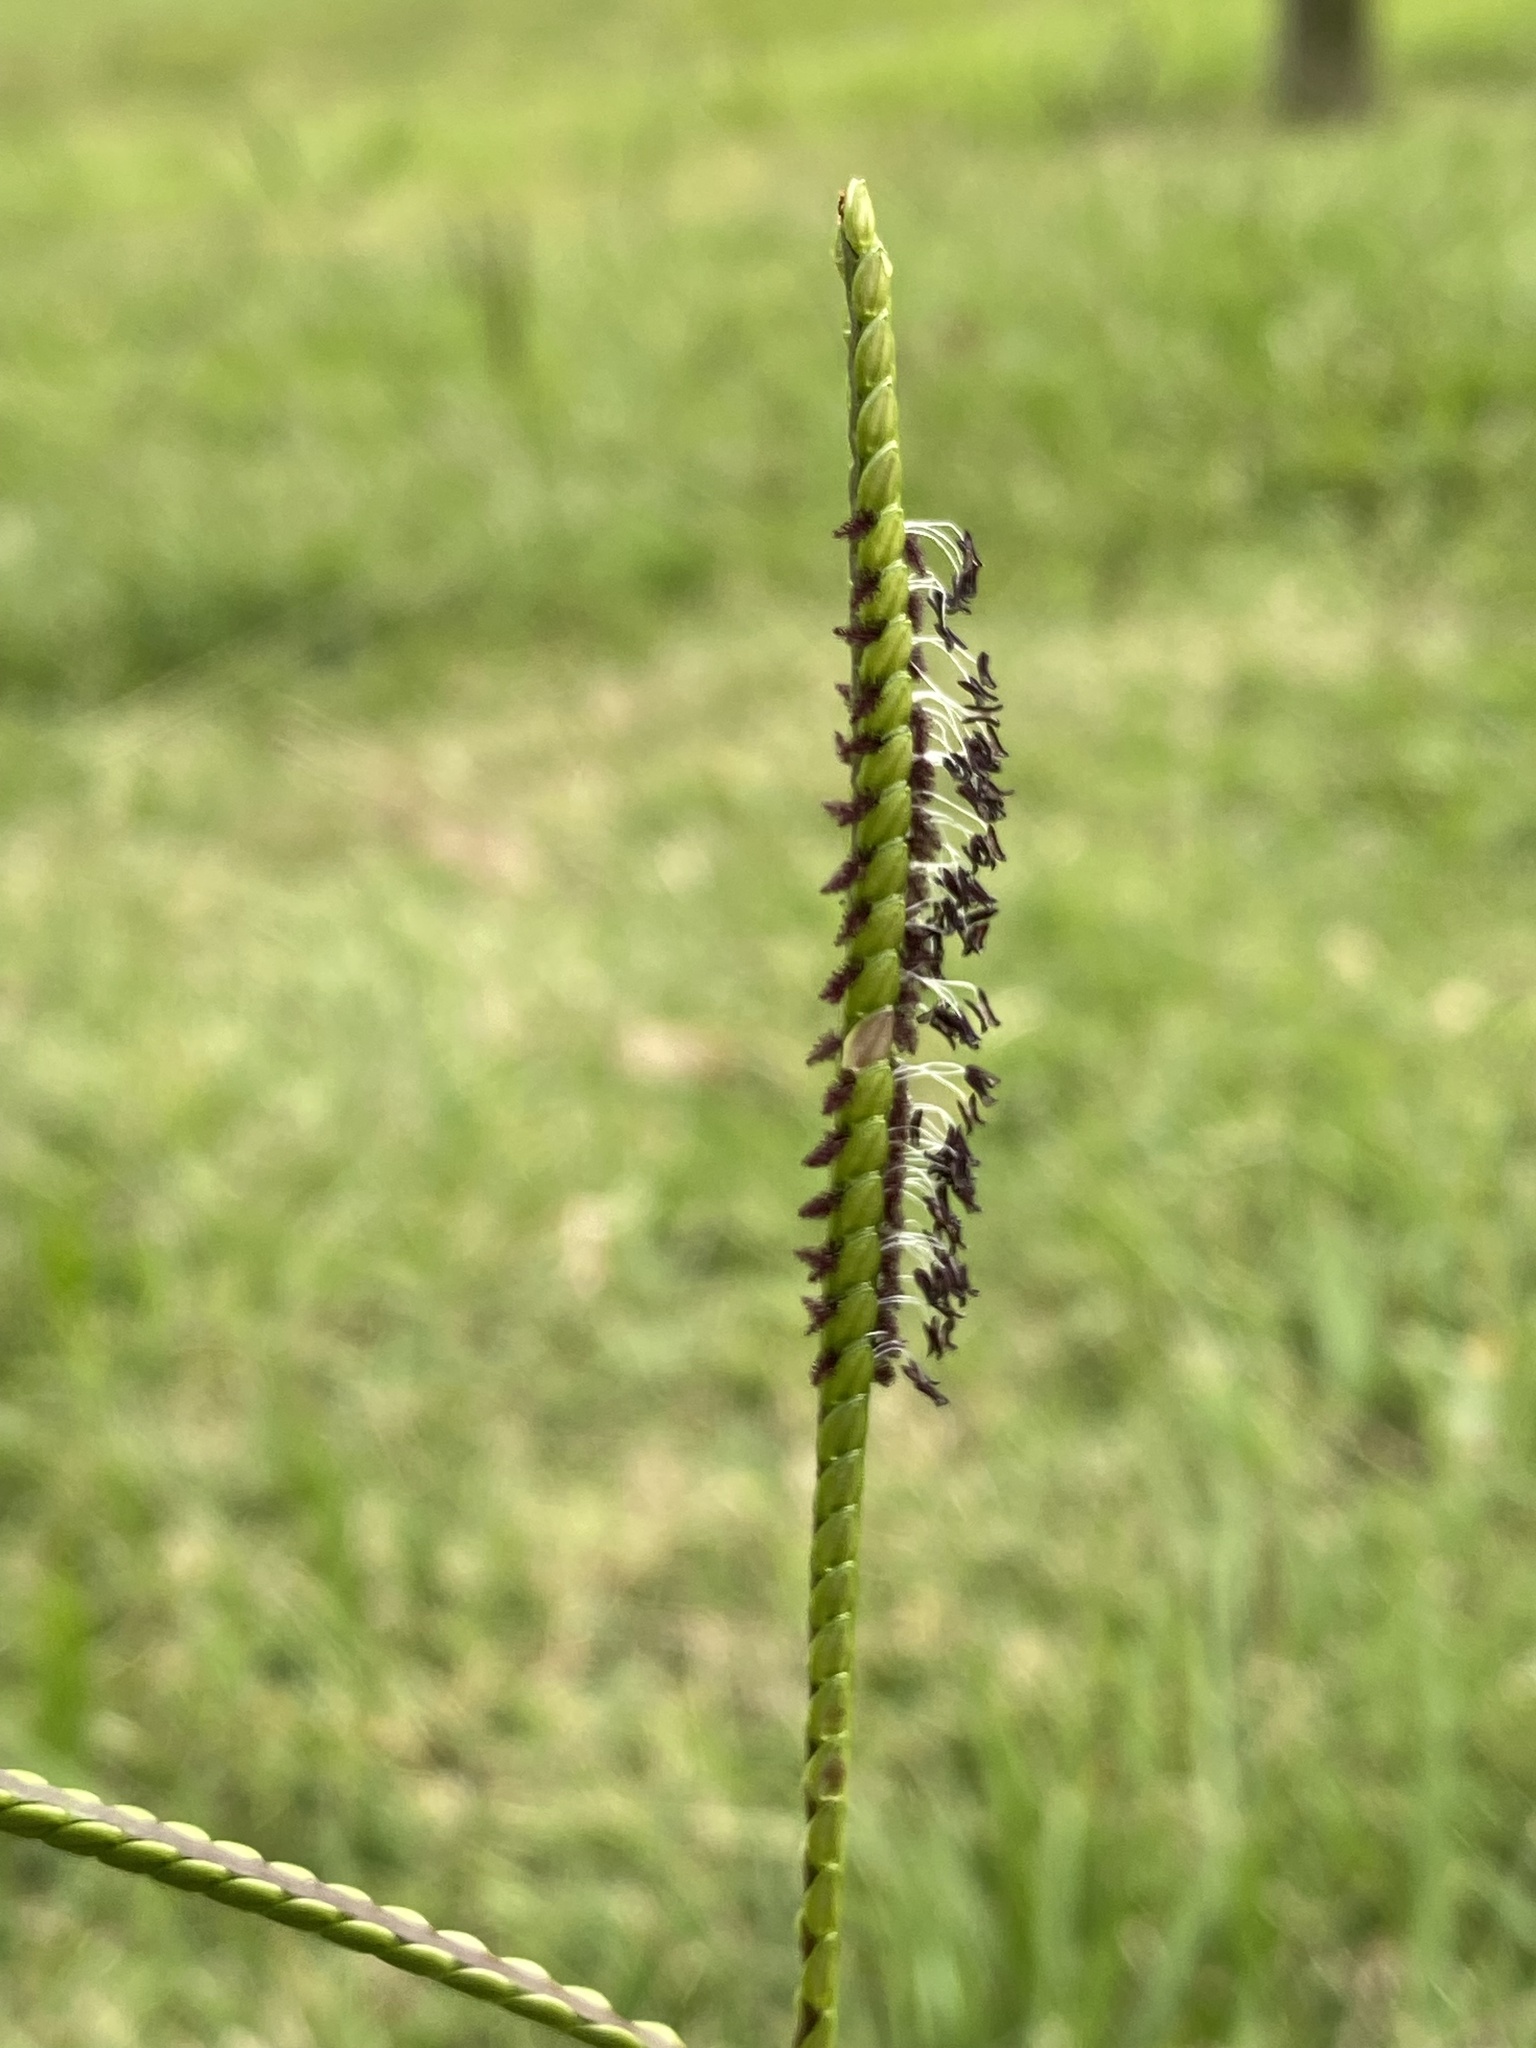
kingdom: Plantae
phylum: Tracheophyta
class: Liliopsida
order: Poales
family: Poaceae
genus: Paspalum
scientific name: Paspalum notatum
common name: Bahiagrass
